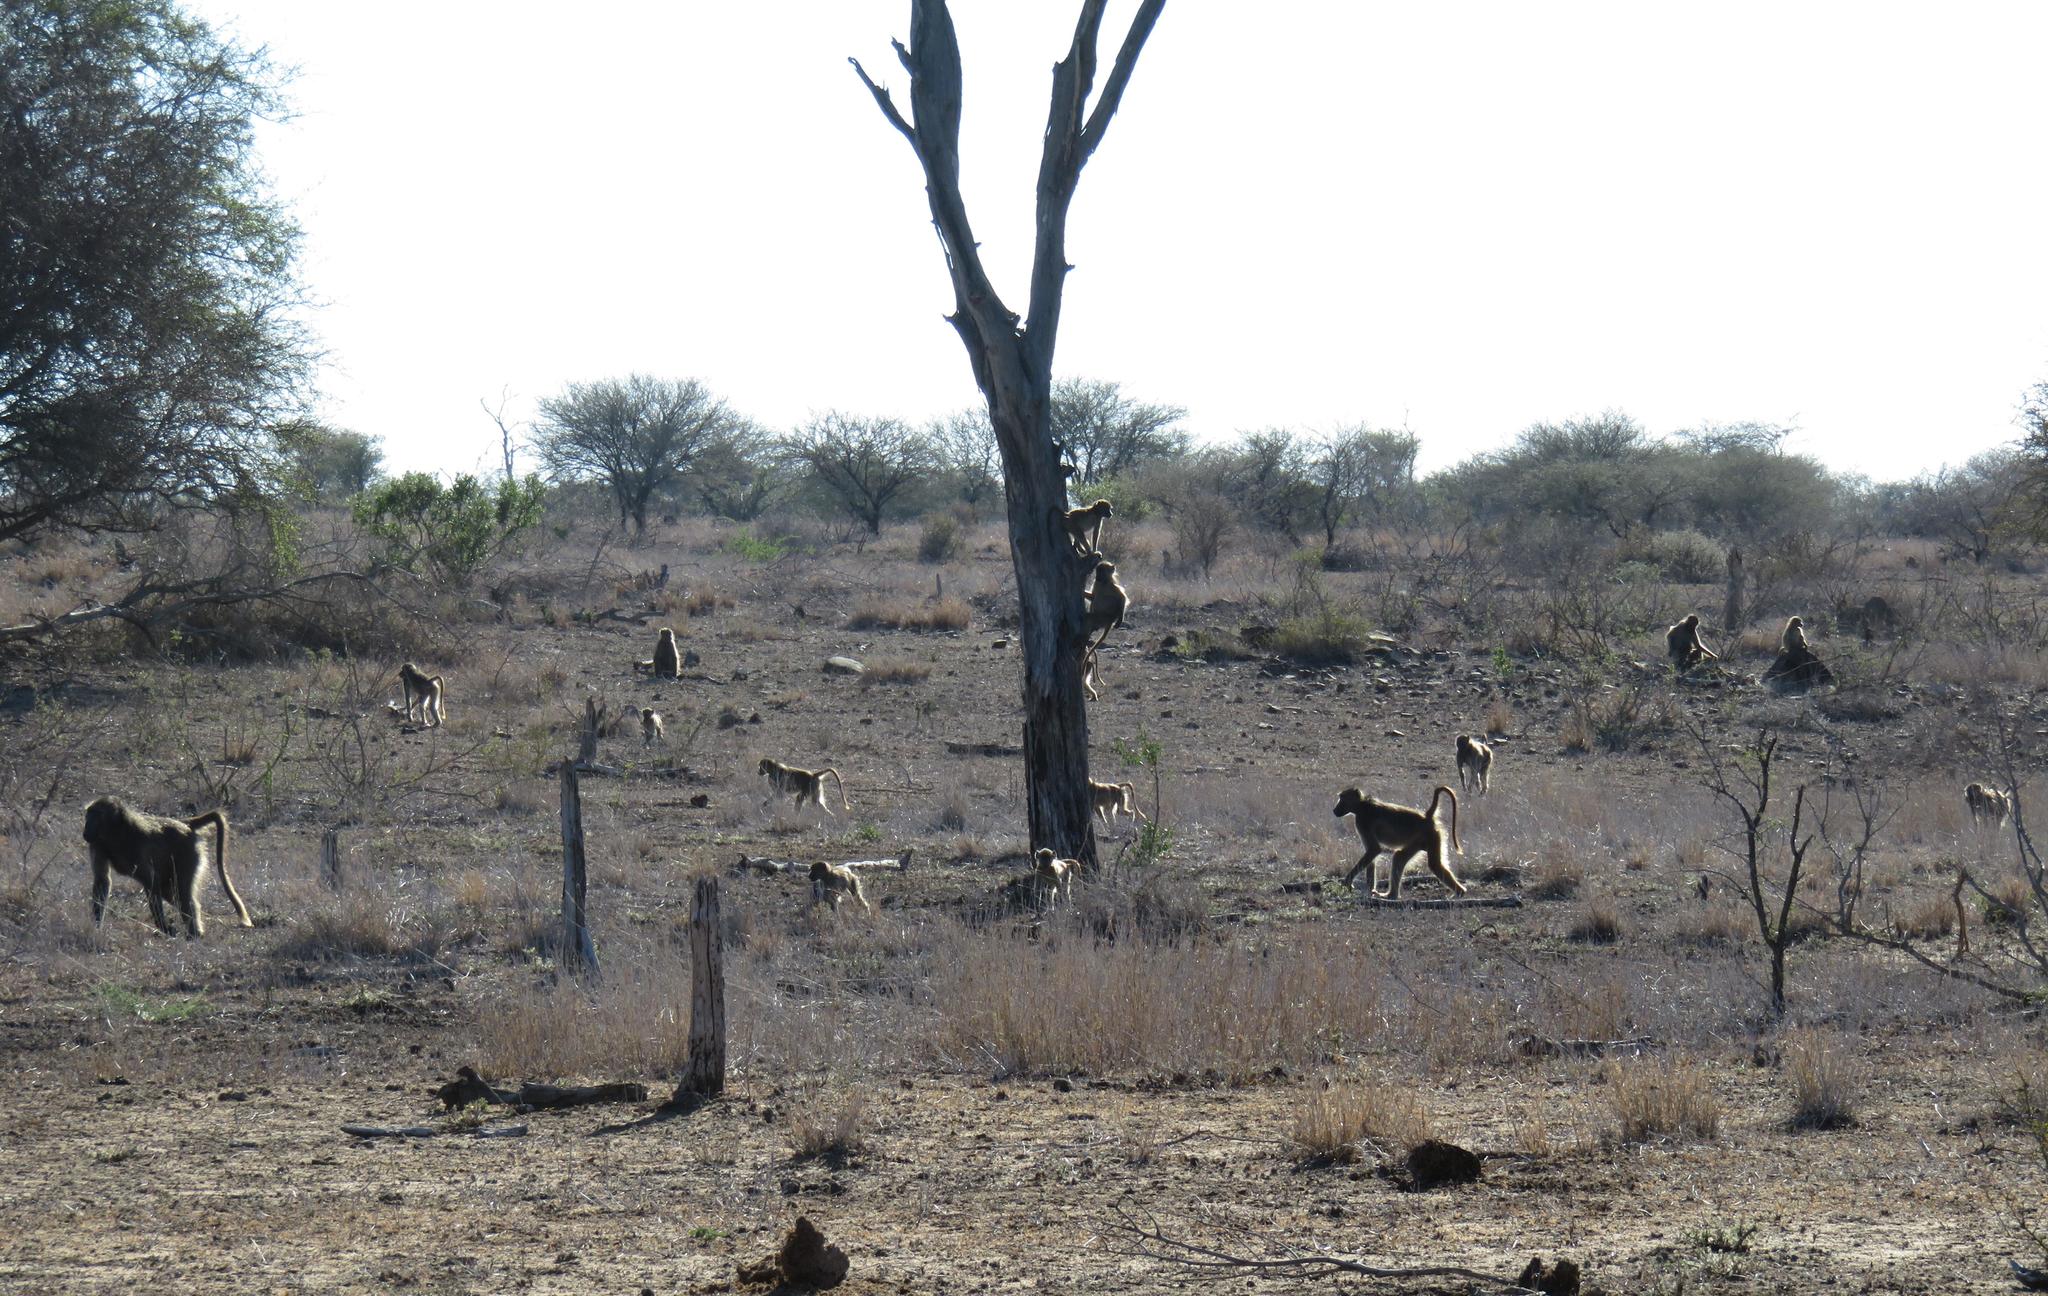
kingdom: Animalia
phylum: Chordata
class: Mammalia
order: Primates
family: Cercopithecidae
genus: Papio
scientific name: Papio ursinus
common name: Chacma baboon
